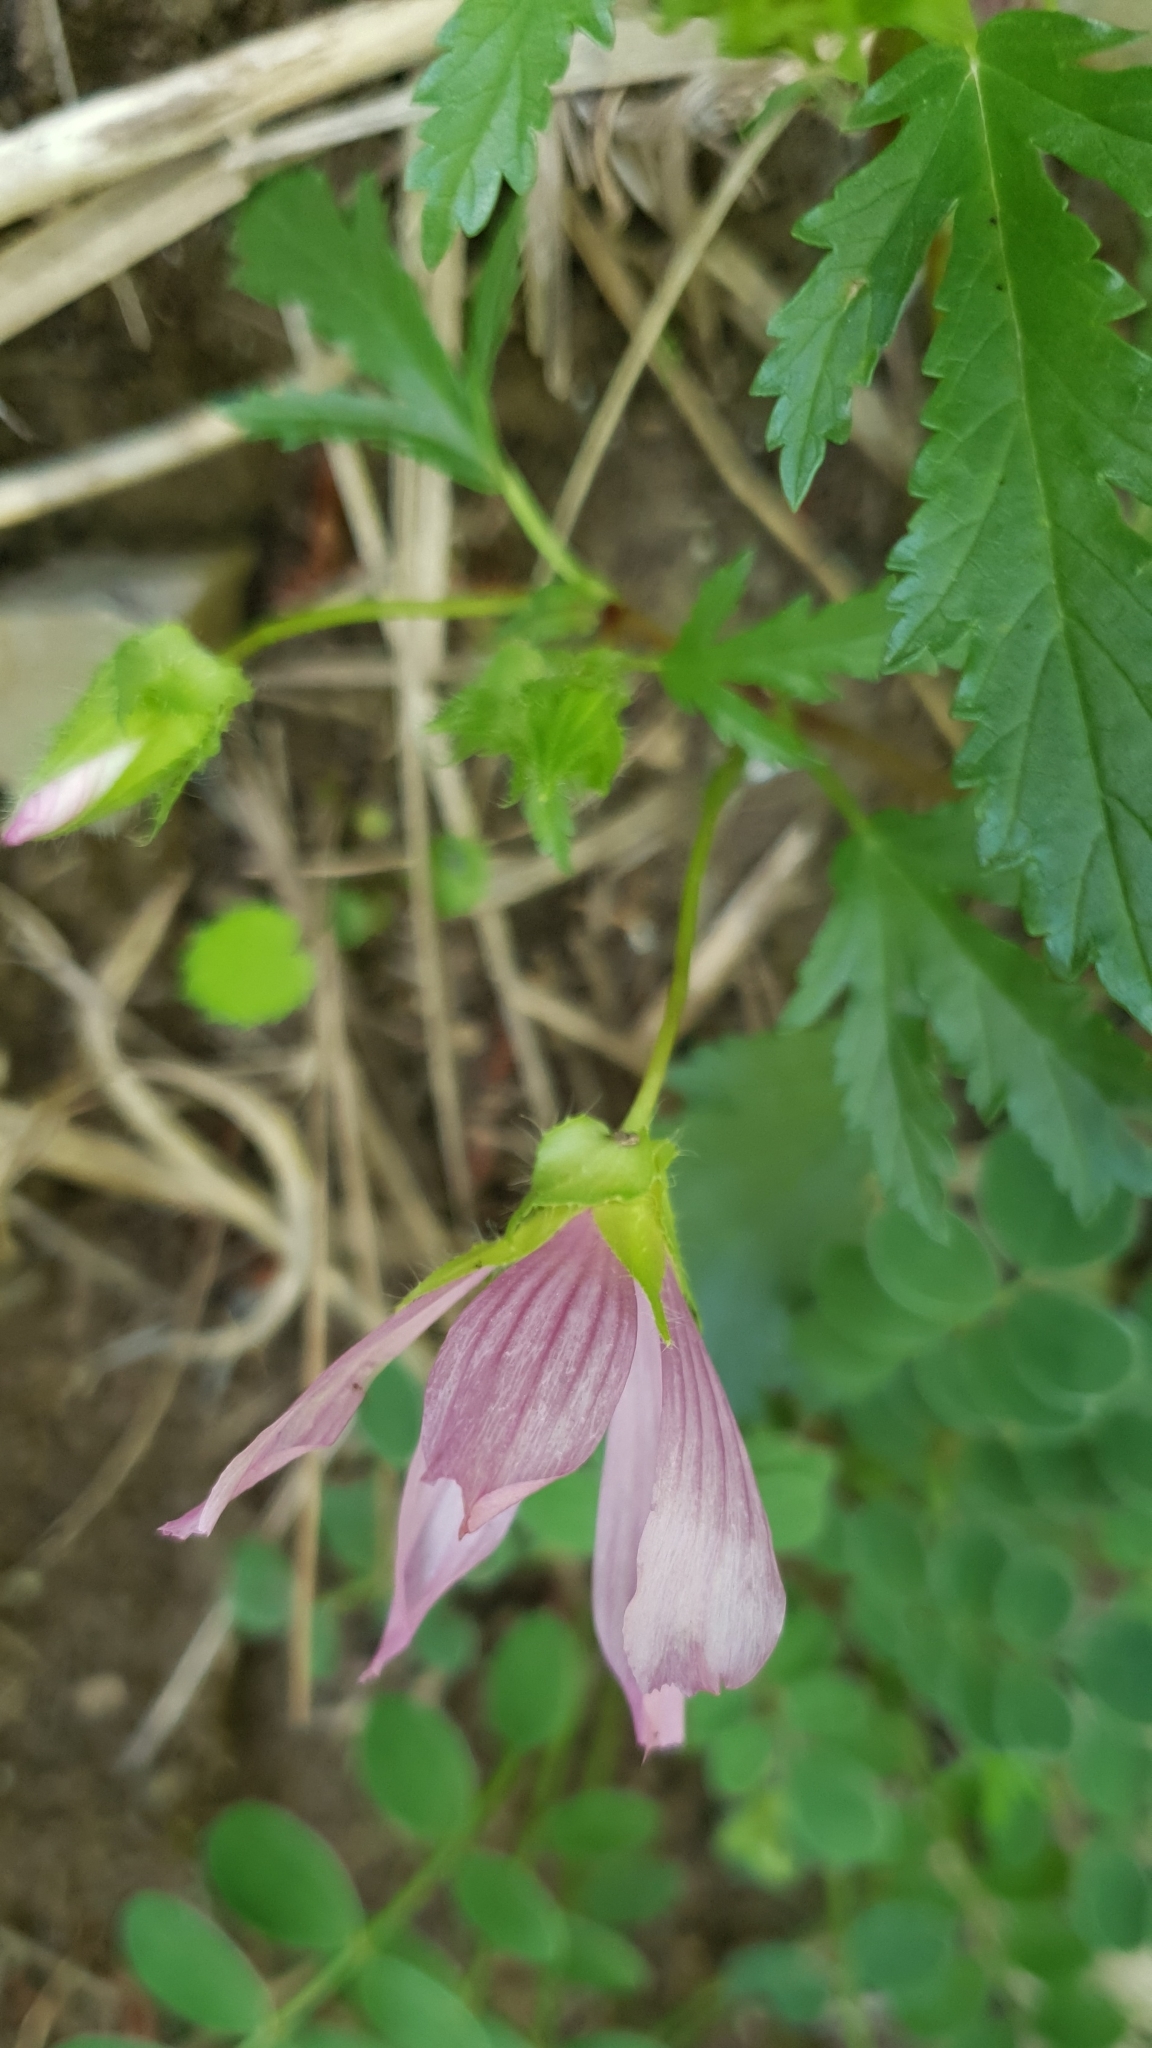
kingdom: Plantae
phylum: Tracheophyta
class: Magnoliopsida
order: Malvales
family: Malvaceae
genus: Malope
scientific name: Malope malacoides
